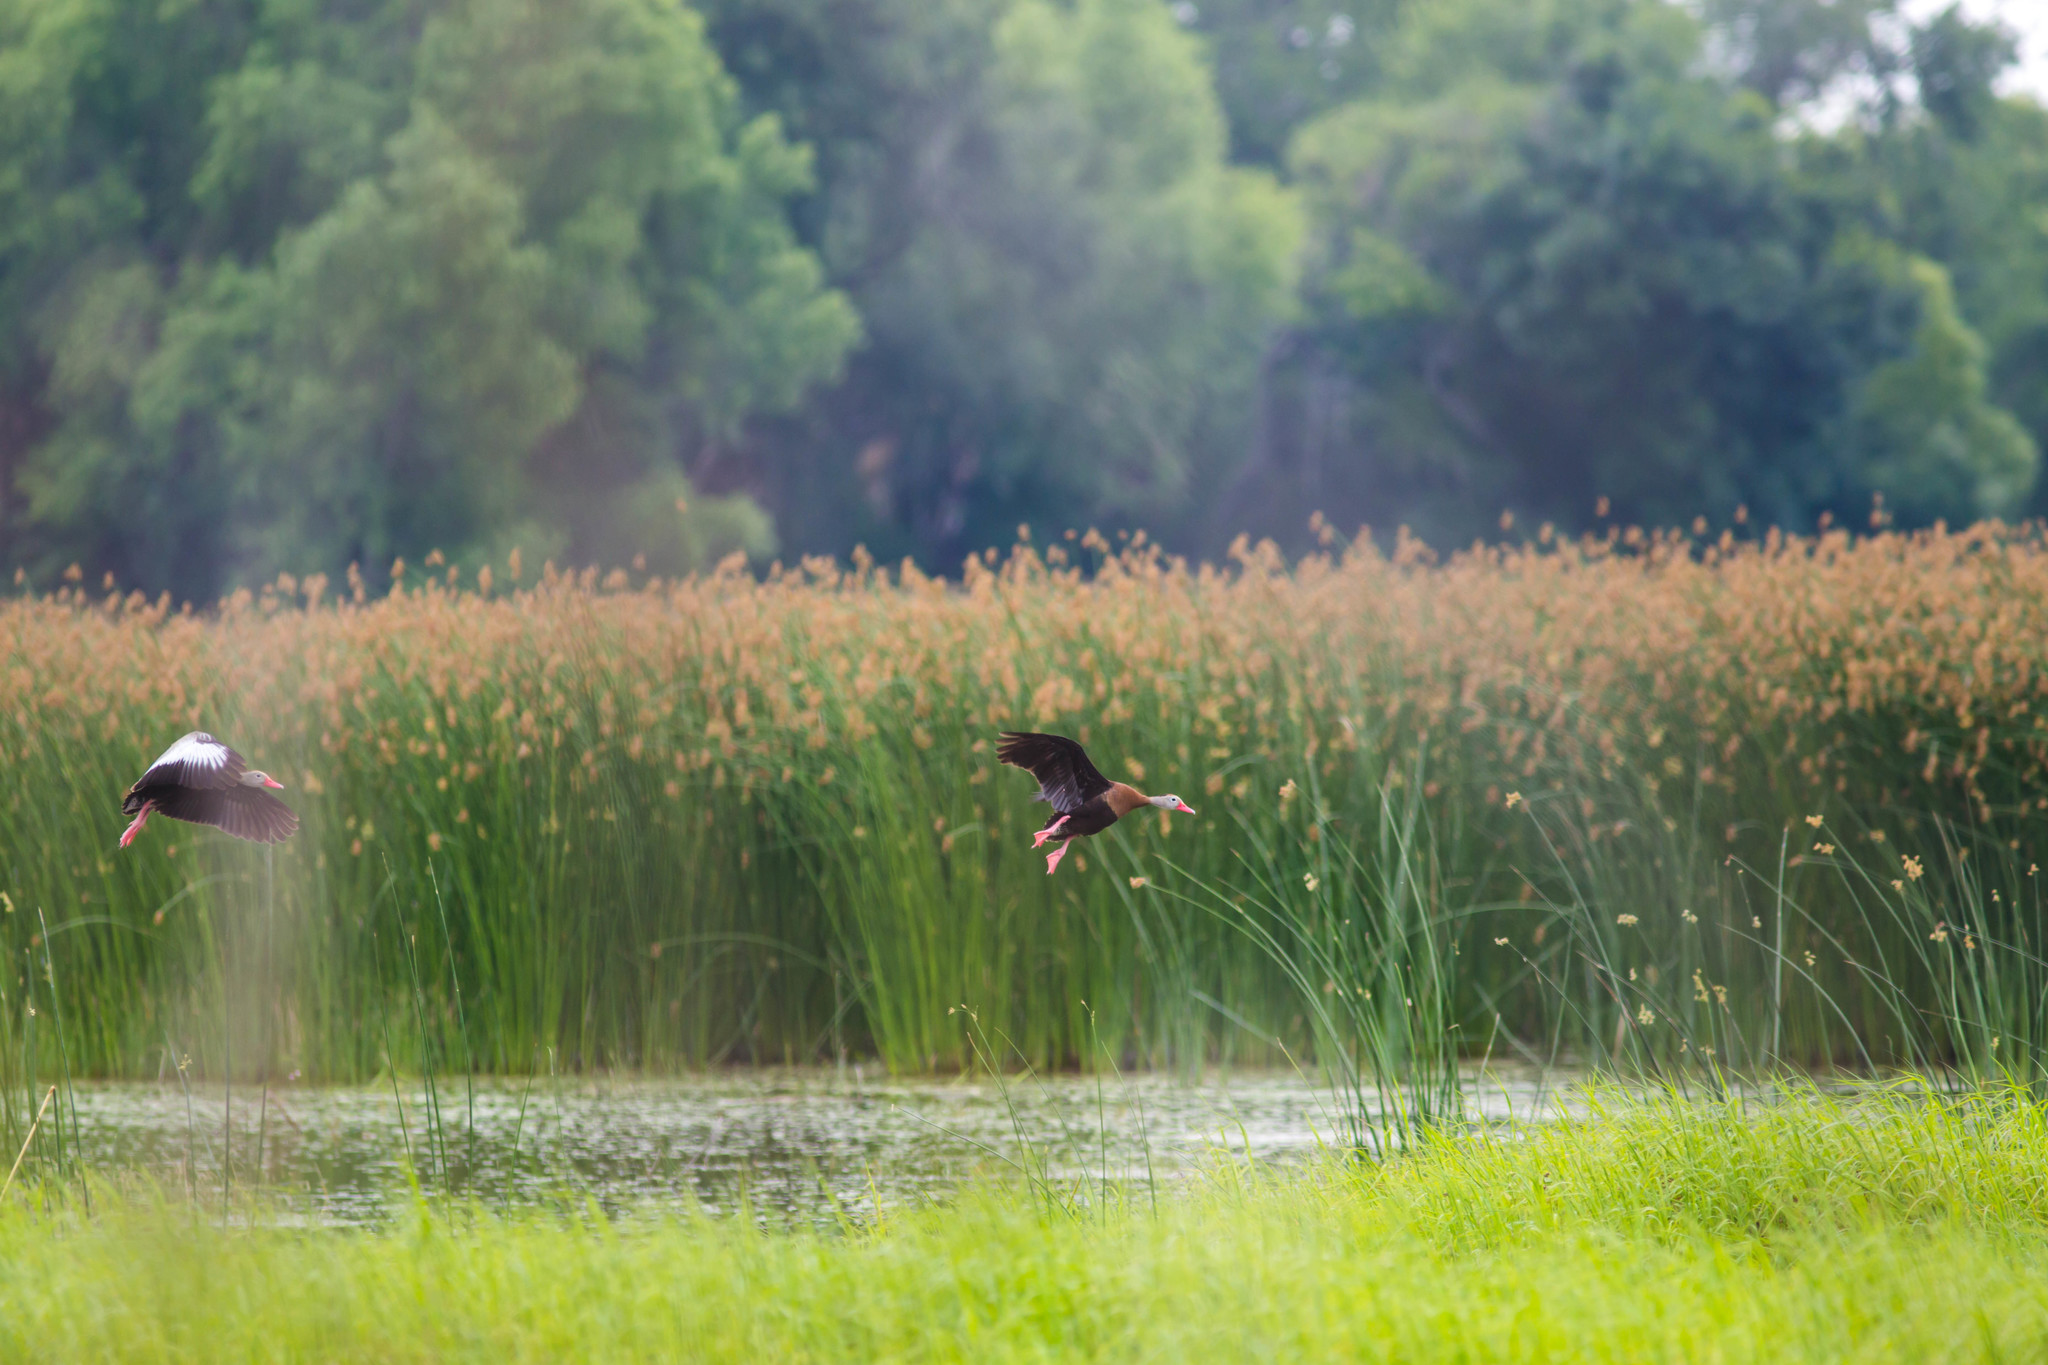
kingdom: Animalia
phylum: Chordata
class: Aves
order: Anseriformes
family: Anatidae
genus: Dendrocygna
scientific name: Dendrocygna autumnalis
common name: Black-bellied whistling duck
